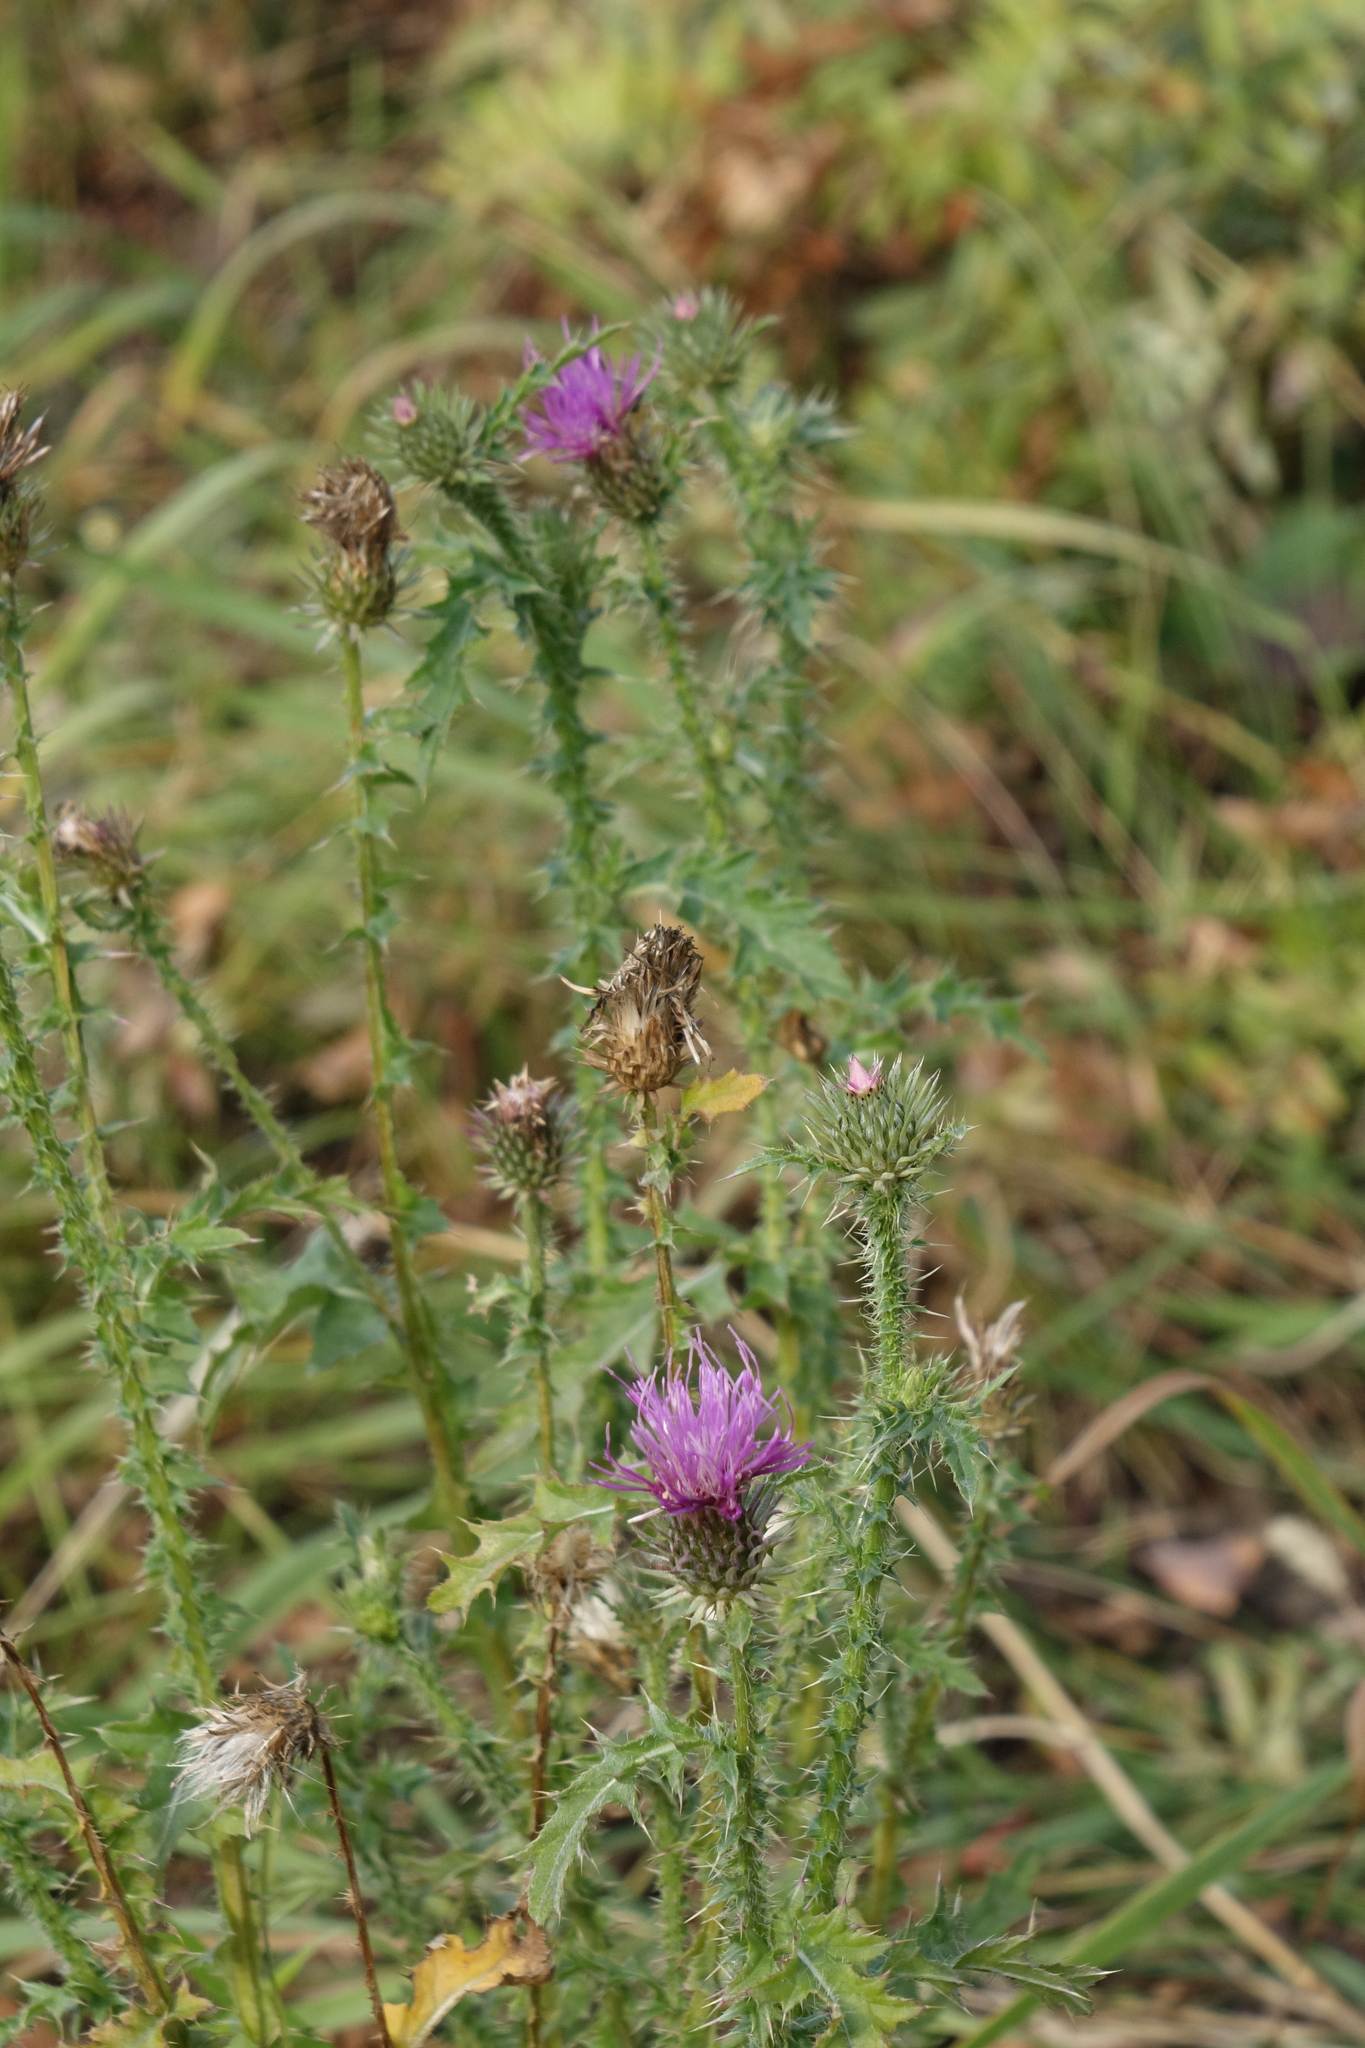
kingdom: Plantae
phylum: Tracheophyta
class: Magnoliopsida
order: Asterales
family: Asteraceae
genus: Carduus
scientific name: Carduus acanthoides
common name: Plumeless thistle
